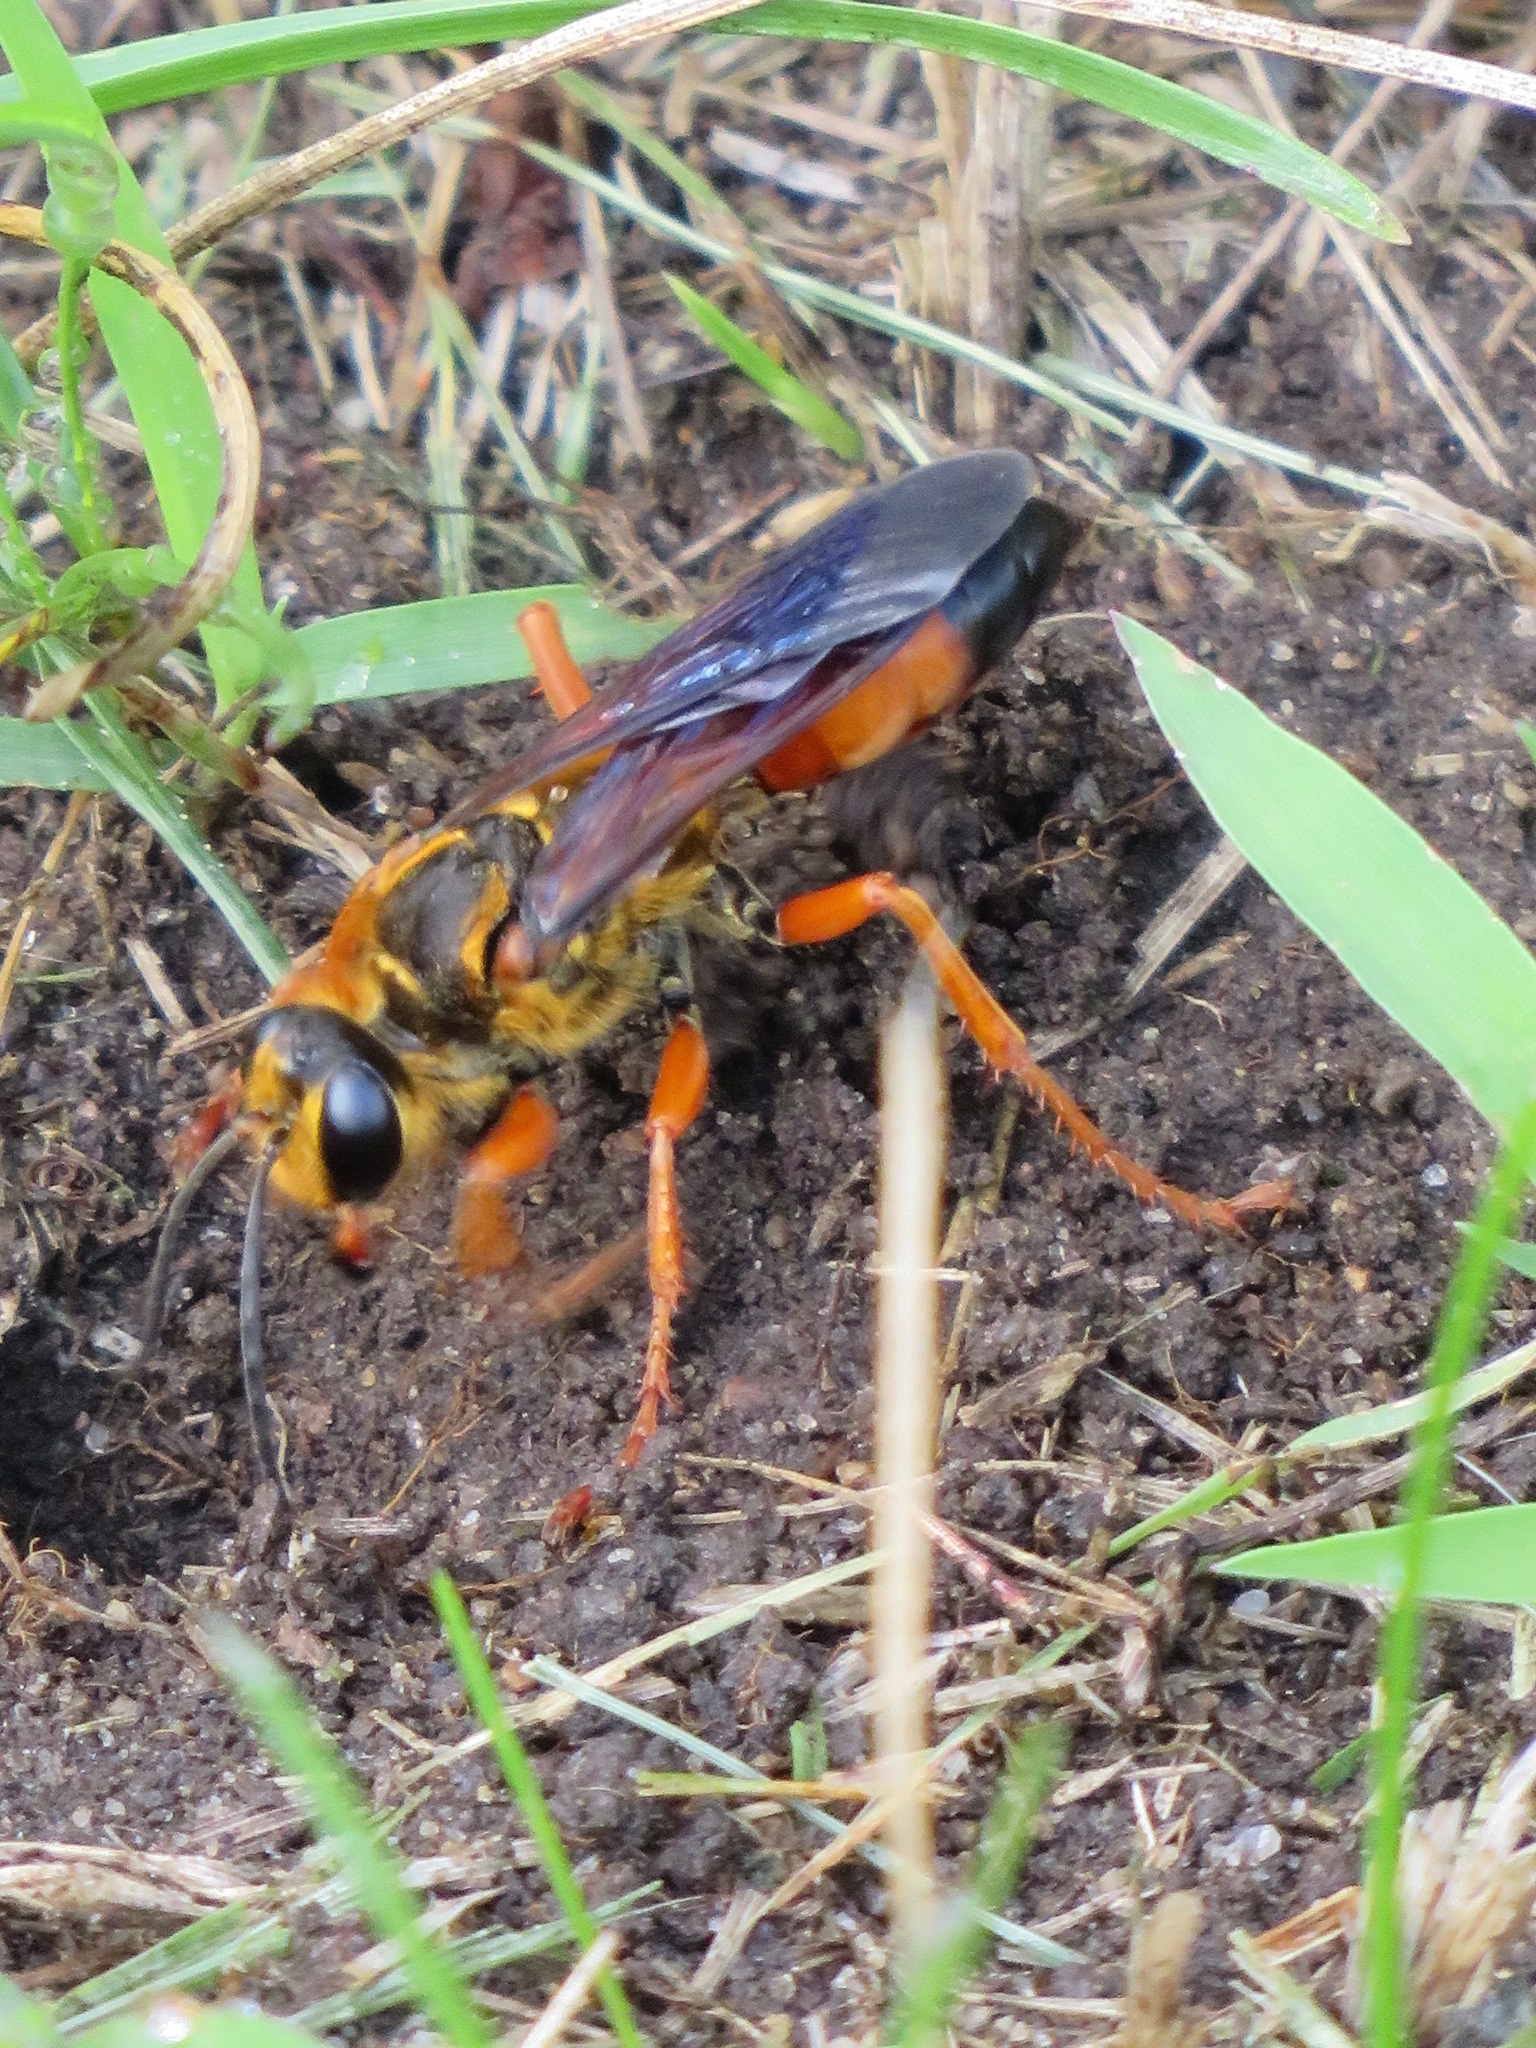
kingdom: Animalia
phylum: Arthropoda
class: Insecta
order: Hymenoptera
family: Sphecidae
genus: Sphex
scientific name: Sphex ichneumoneus
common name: Great golden digger wasp
